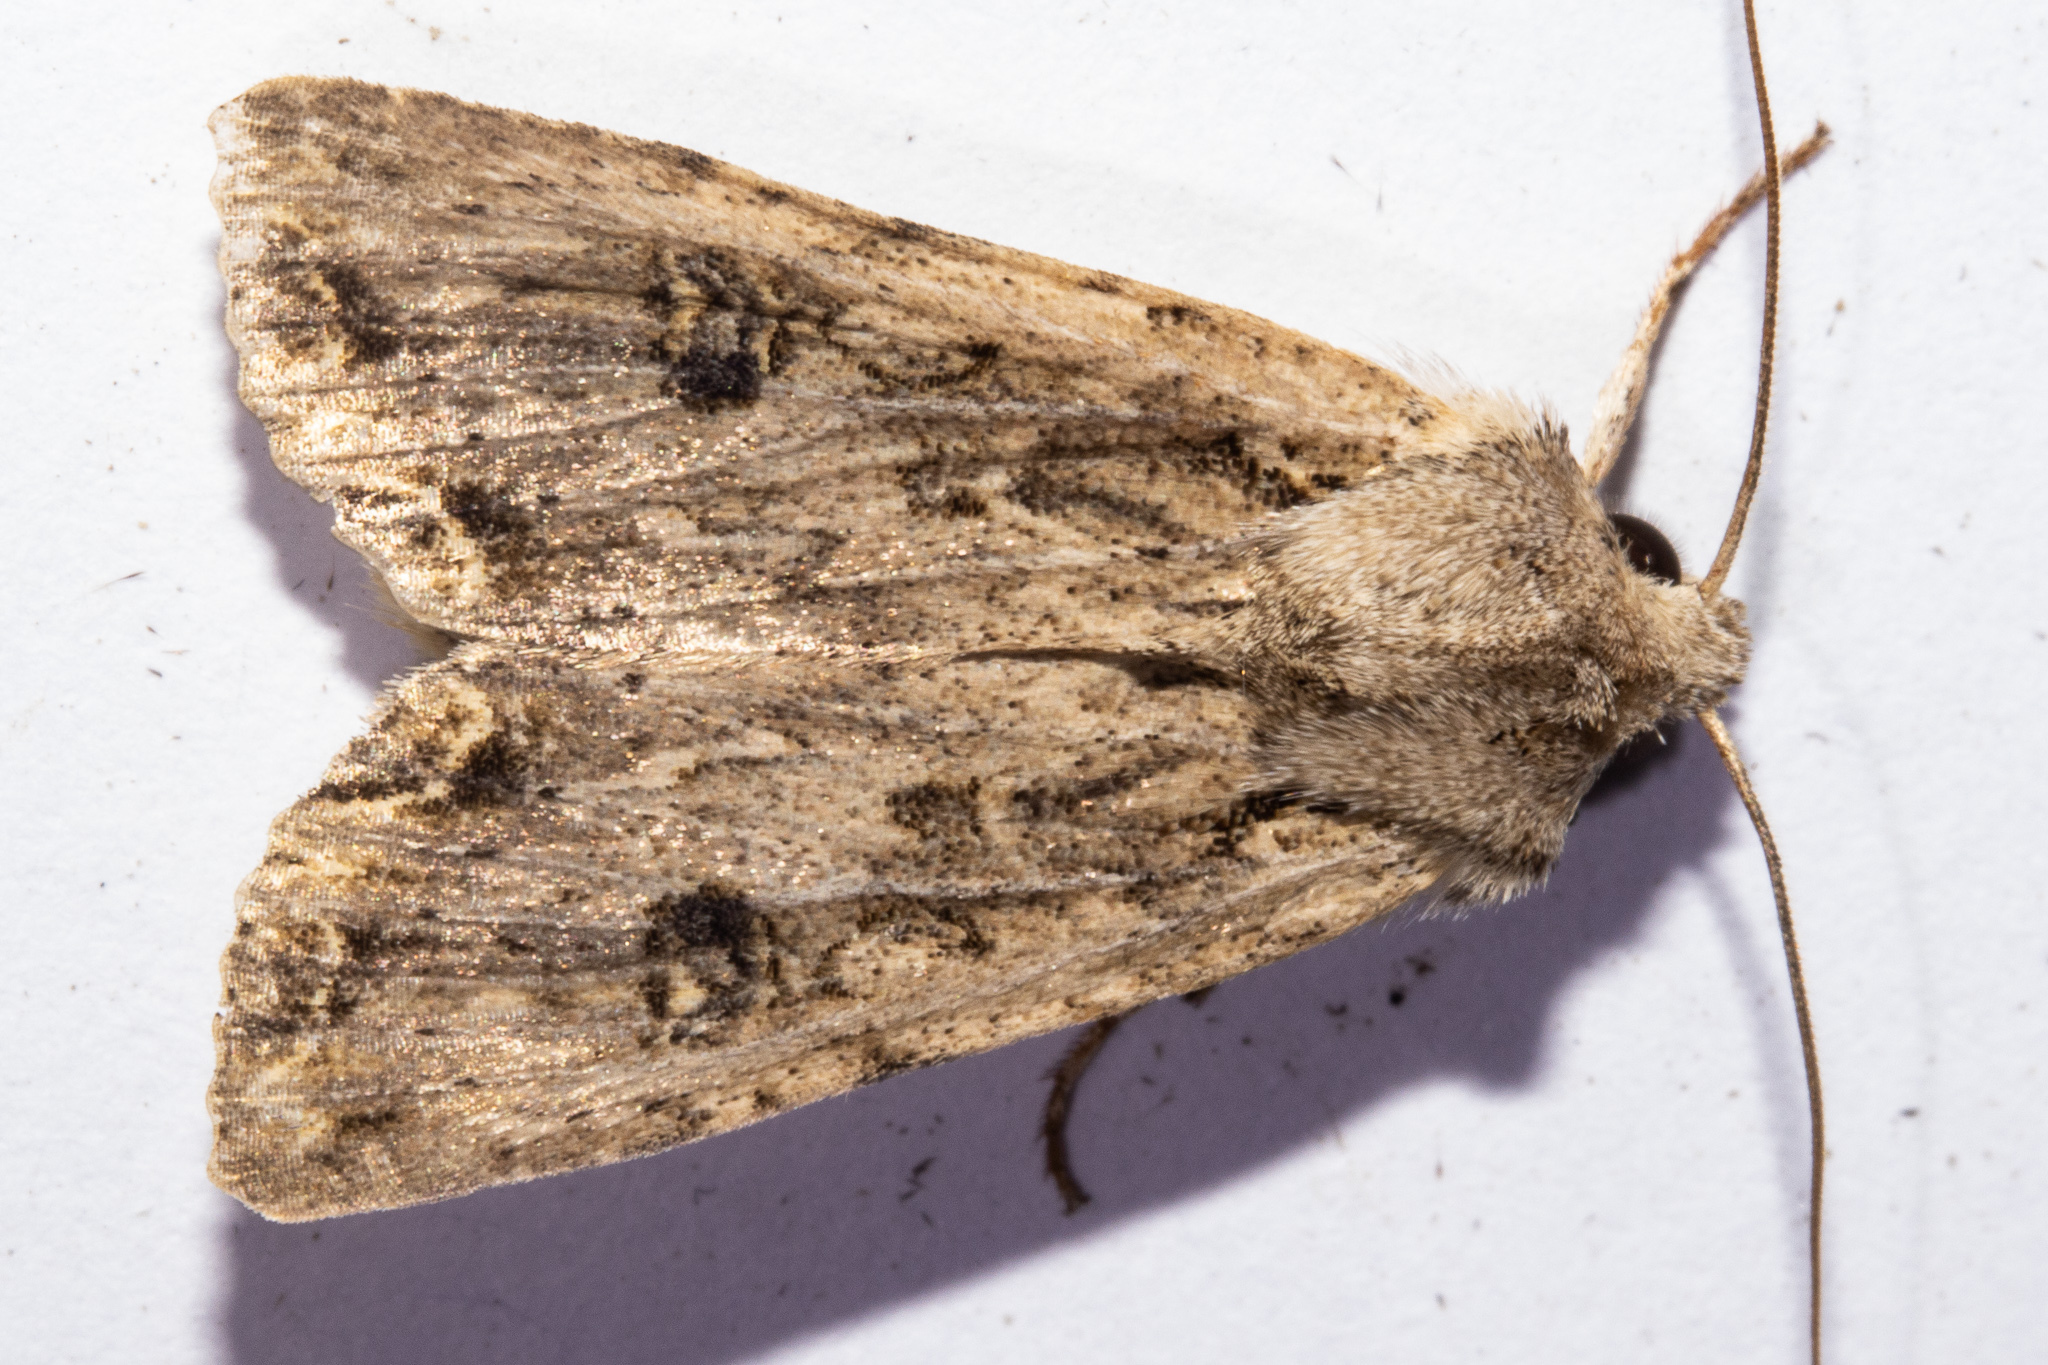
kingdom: Animalia
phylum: Arthropoda
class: Insecta
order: Lepidoptera
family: Noctuidae
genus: Ichneutica
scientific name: Ichneutica lignana
